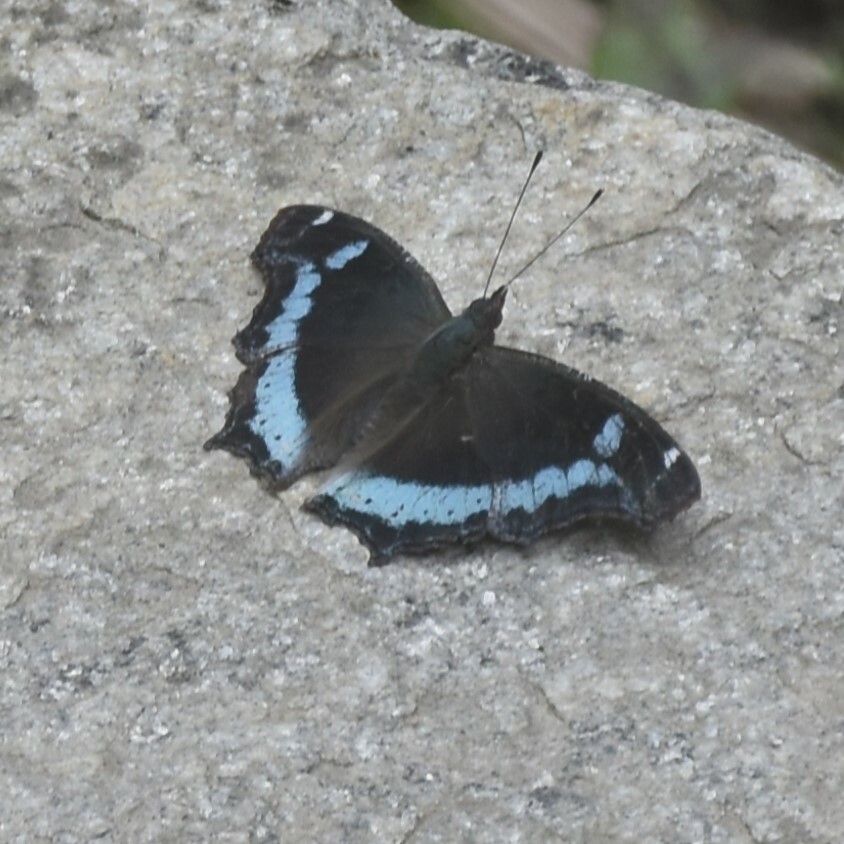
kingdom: Animalia
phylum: Arthropoda
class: Insecta
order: Lepidoptera
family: Nymphalidae
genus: Vanessa
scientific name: Vanessa Kaniska canace
